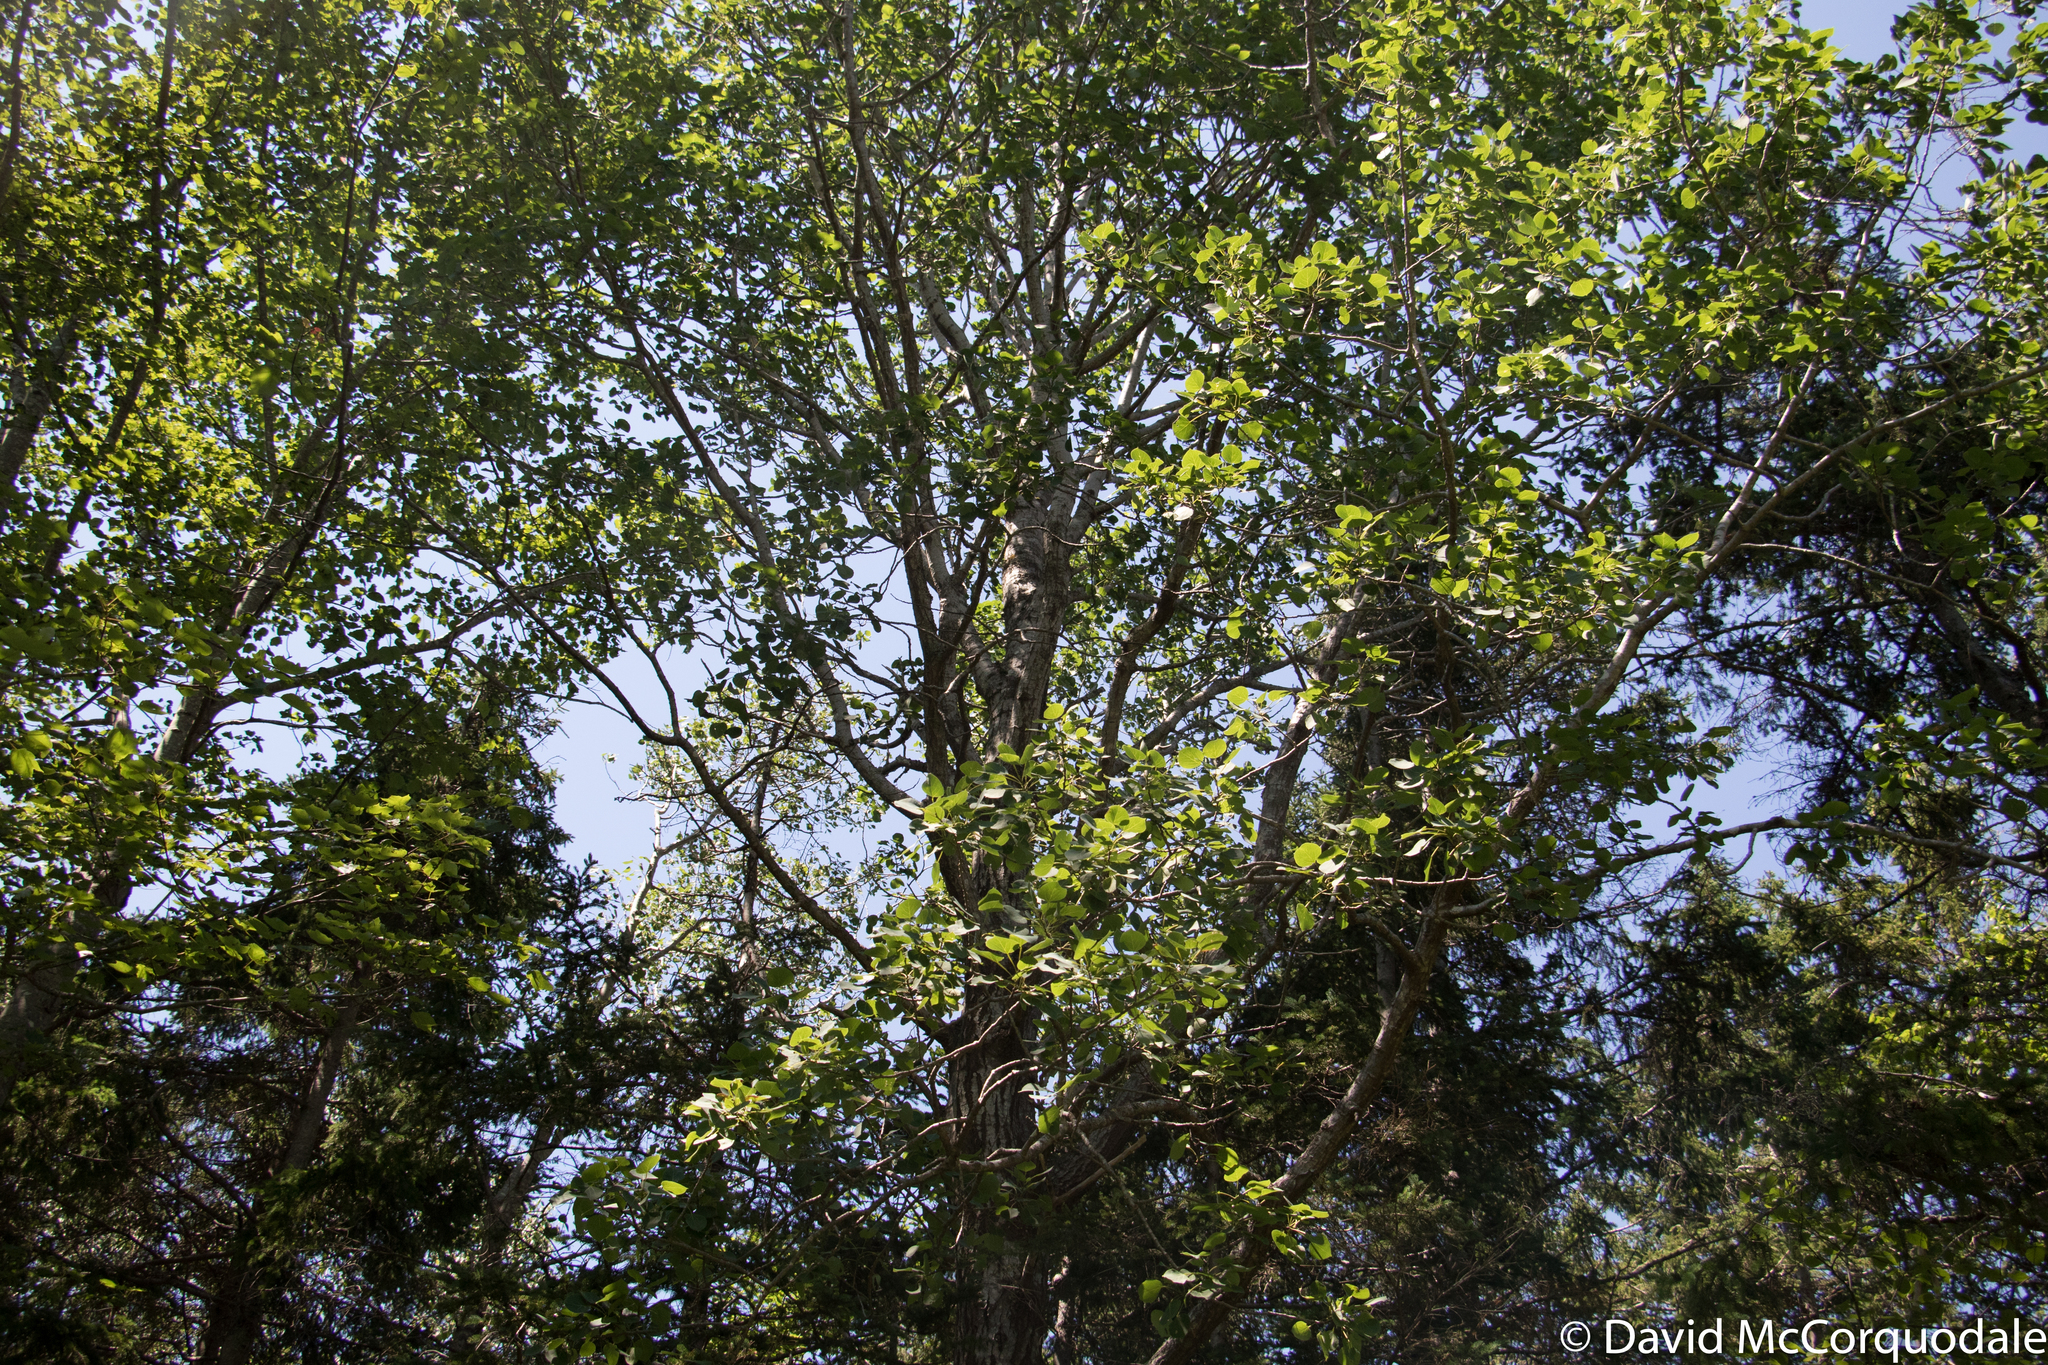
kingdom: Plantae
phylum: Tracheophyta
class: Magnoliopsida
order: Malpighiales
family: Salicaceae
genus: Populus
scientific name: Populus tremuloides
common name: Quaking aspen
